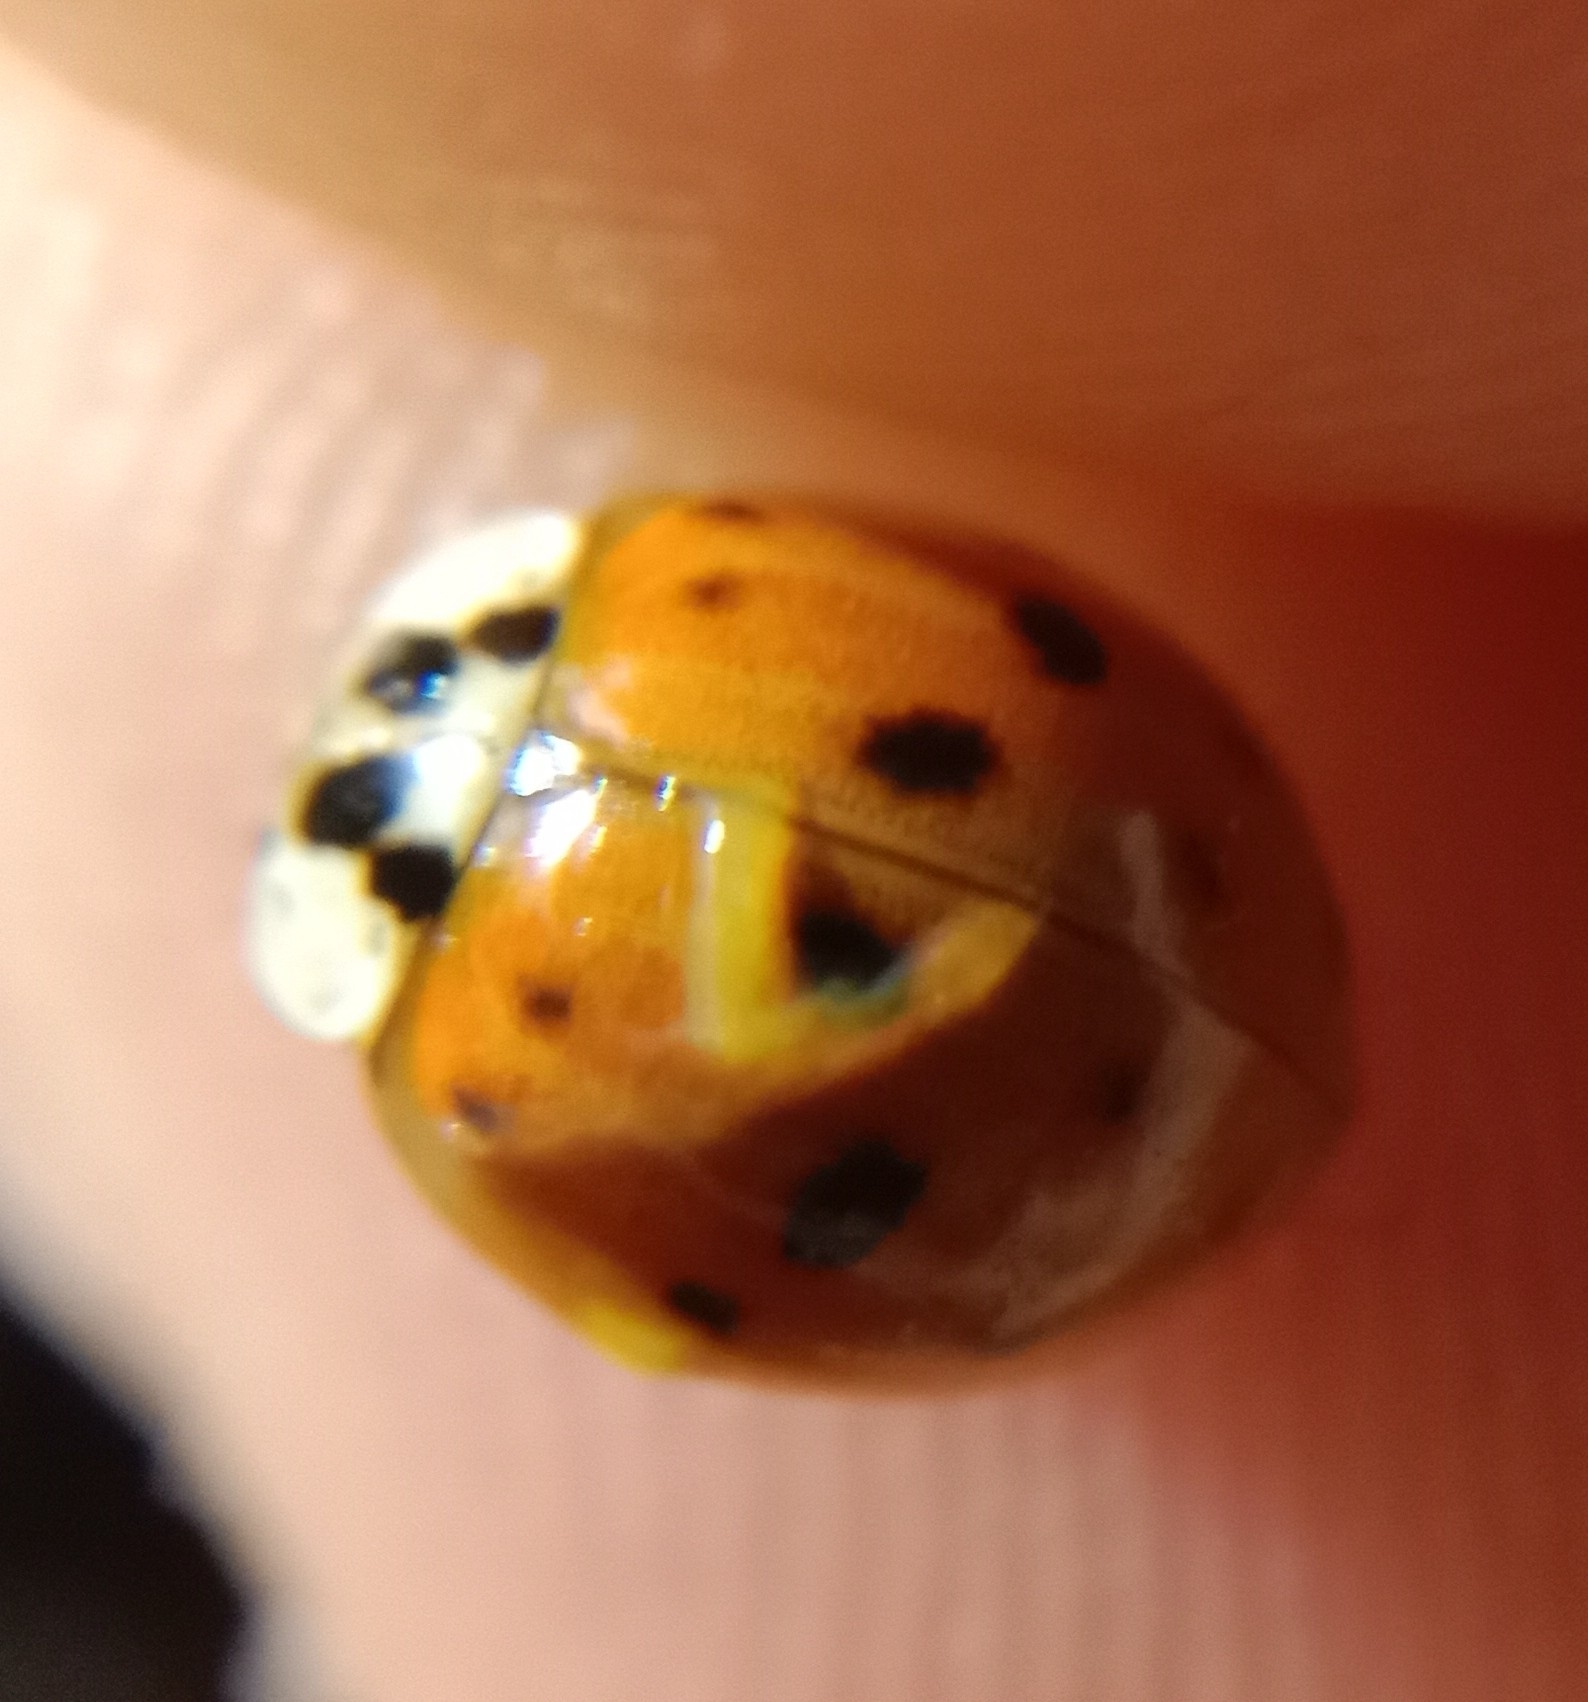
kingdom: Animalia
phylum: Arthropoda
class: Insecta
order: Coleoptera
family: Coccinellidae
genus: Harmonia
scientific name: Harmonia axyridis
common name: Harlequin ladybird
